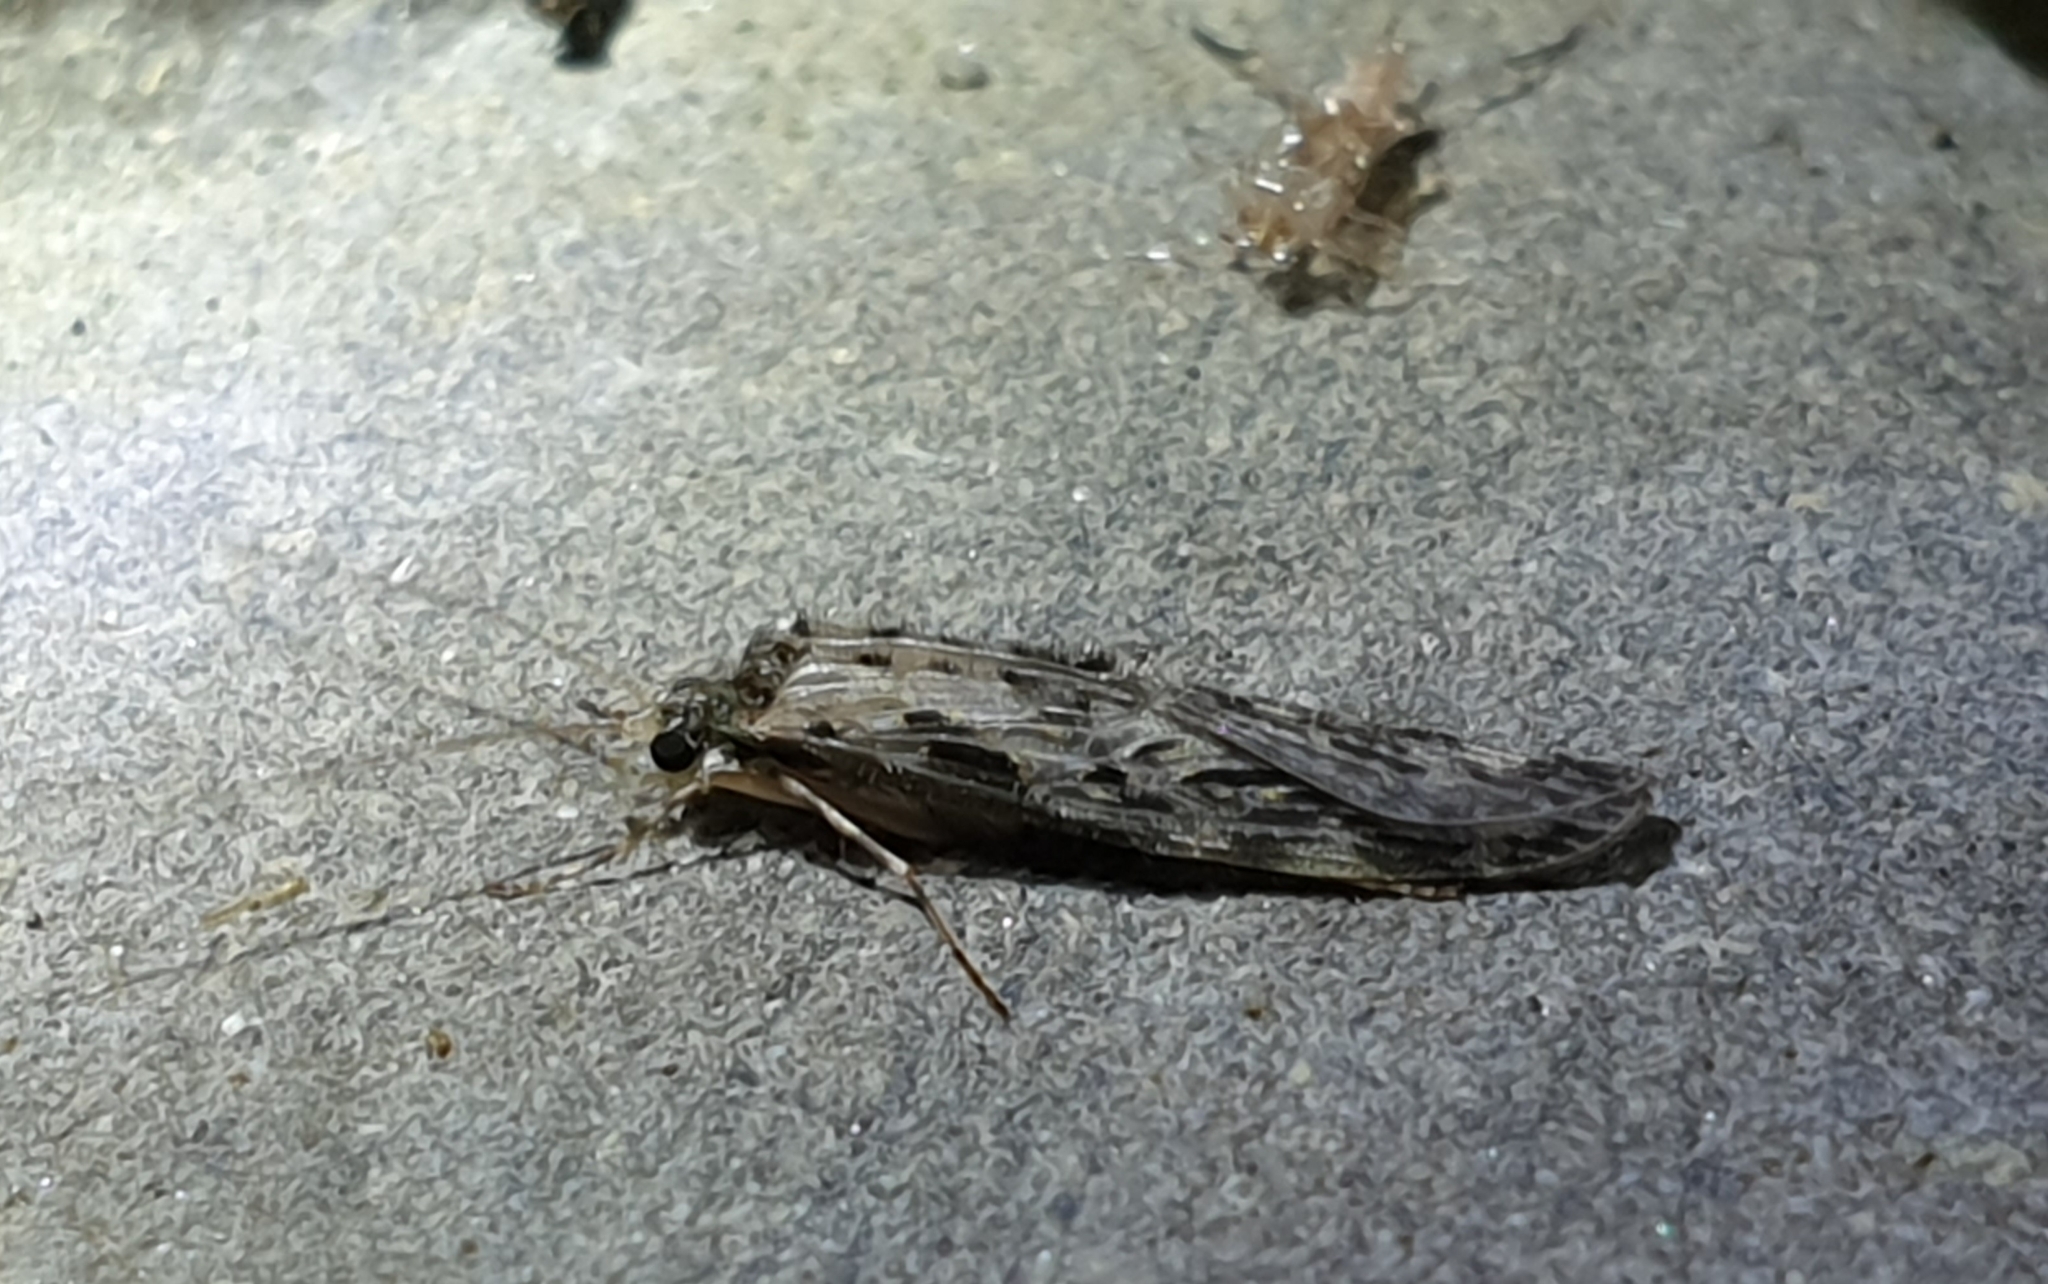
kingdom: Animalia
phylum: Arthropoda
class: Insecta
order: Trichoptera
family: Hydrobiosidae
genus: Psilochorema
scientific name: Psilochorema
